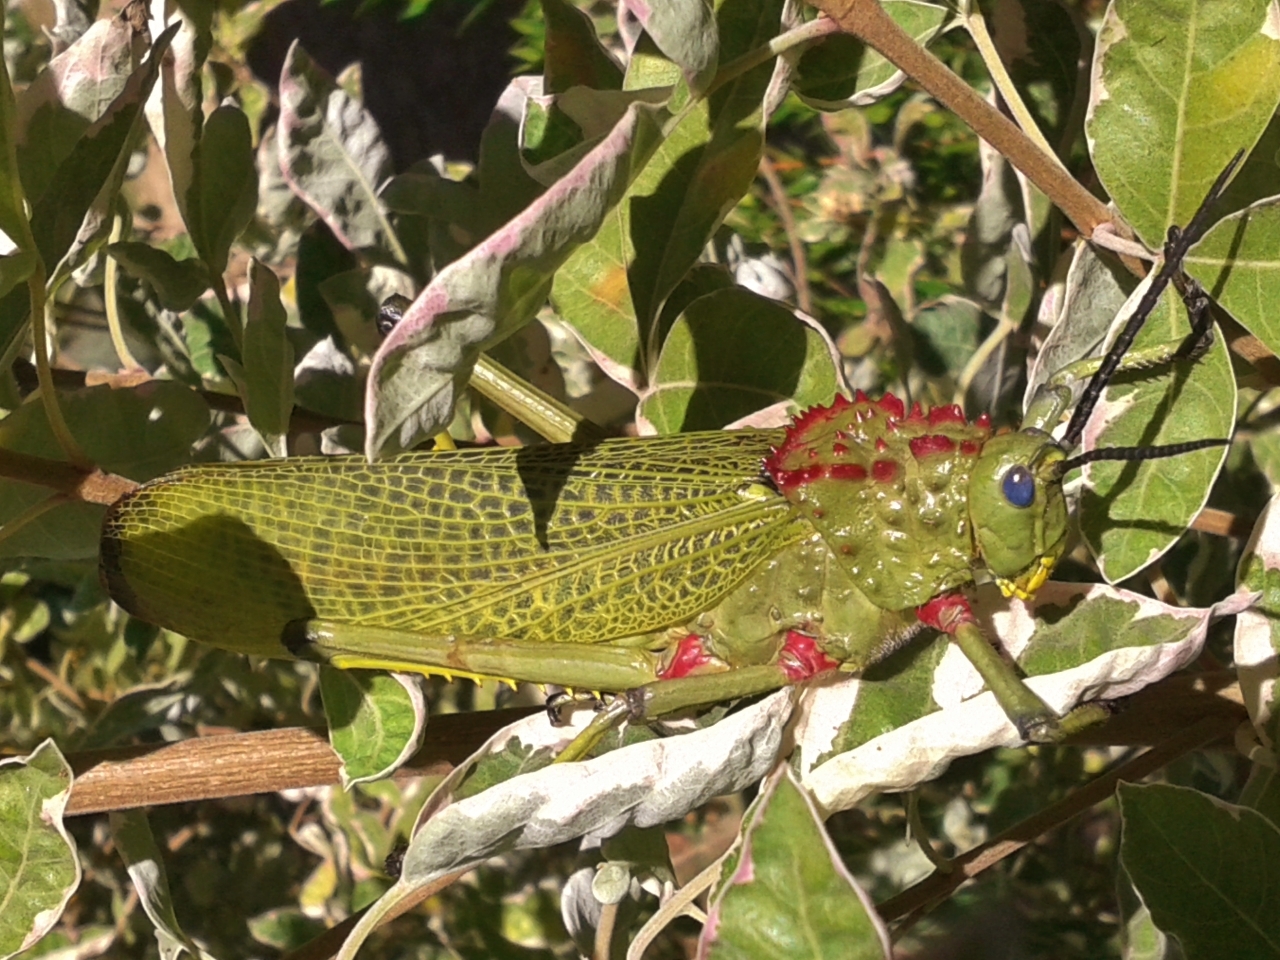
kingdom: Animalia
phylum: Arthropoda
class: Insecta
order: Orthoptera
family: Pyrgomorphidae
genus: Phymateus
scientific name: Phymateus viridipes
